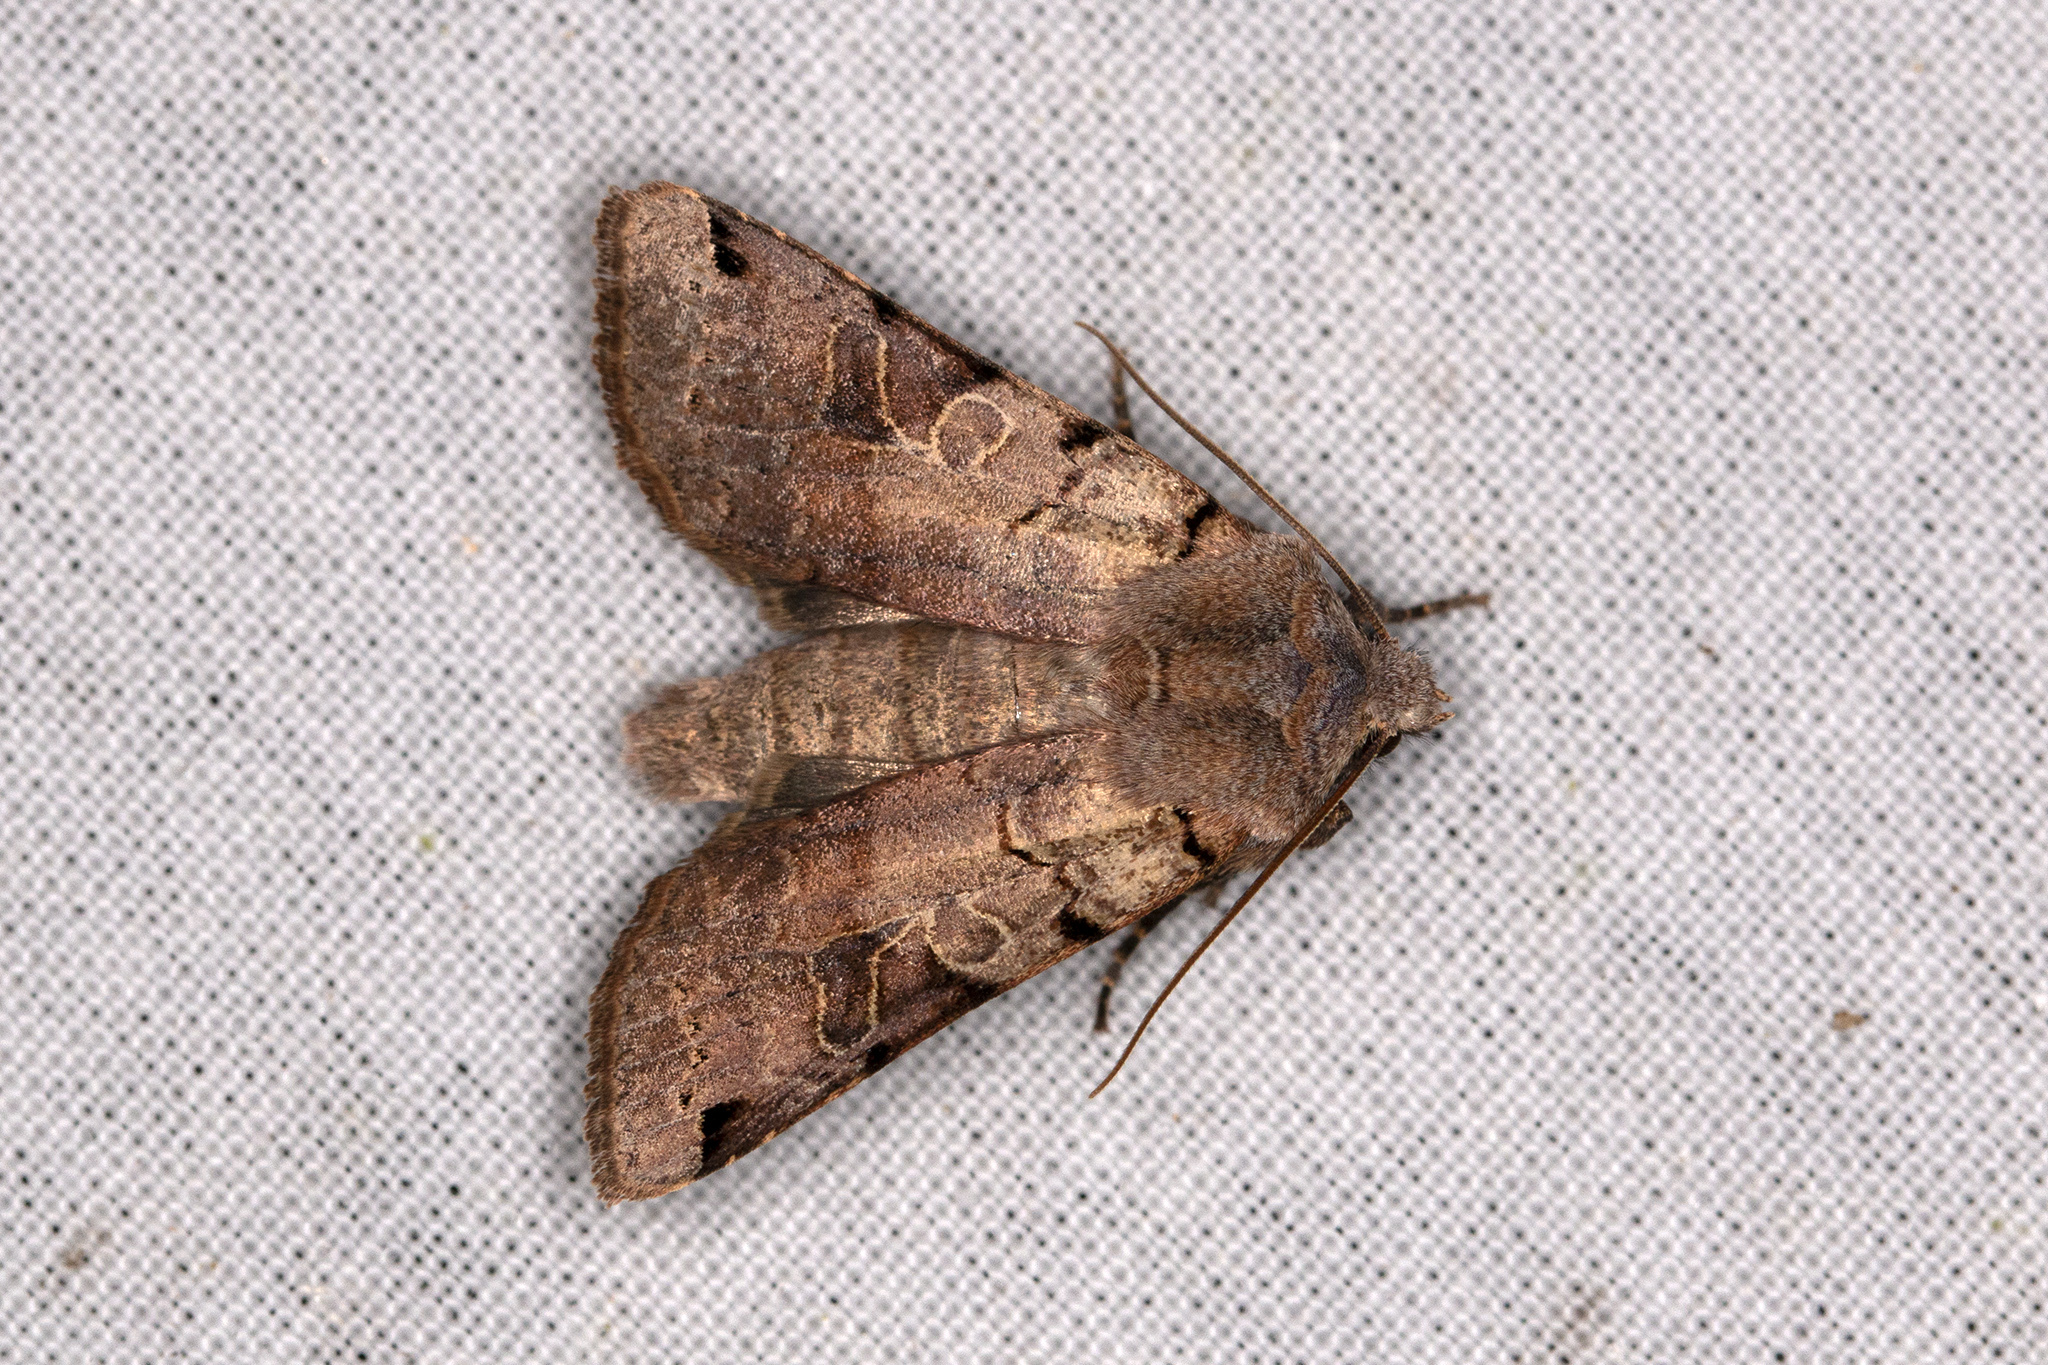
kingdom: Animalia
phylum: Arthropoda
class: Insecta
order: Lepidoptera
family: Noctuidae
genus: Agrochola
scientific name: Agrochola litura
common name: Brown-spot pinion
